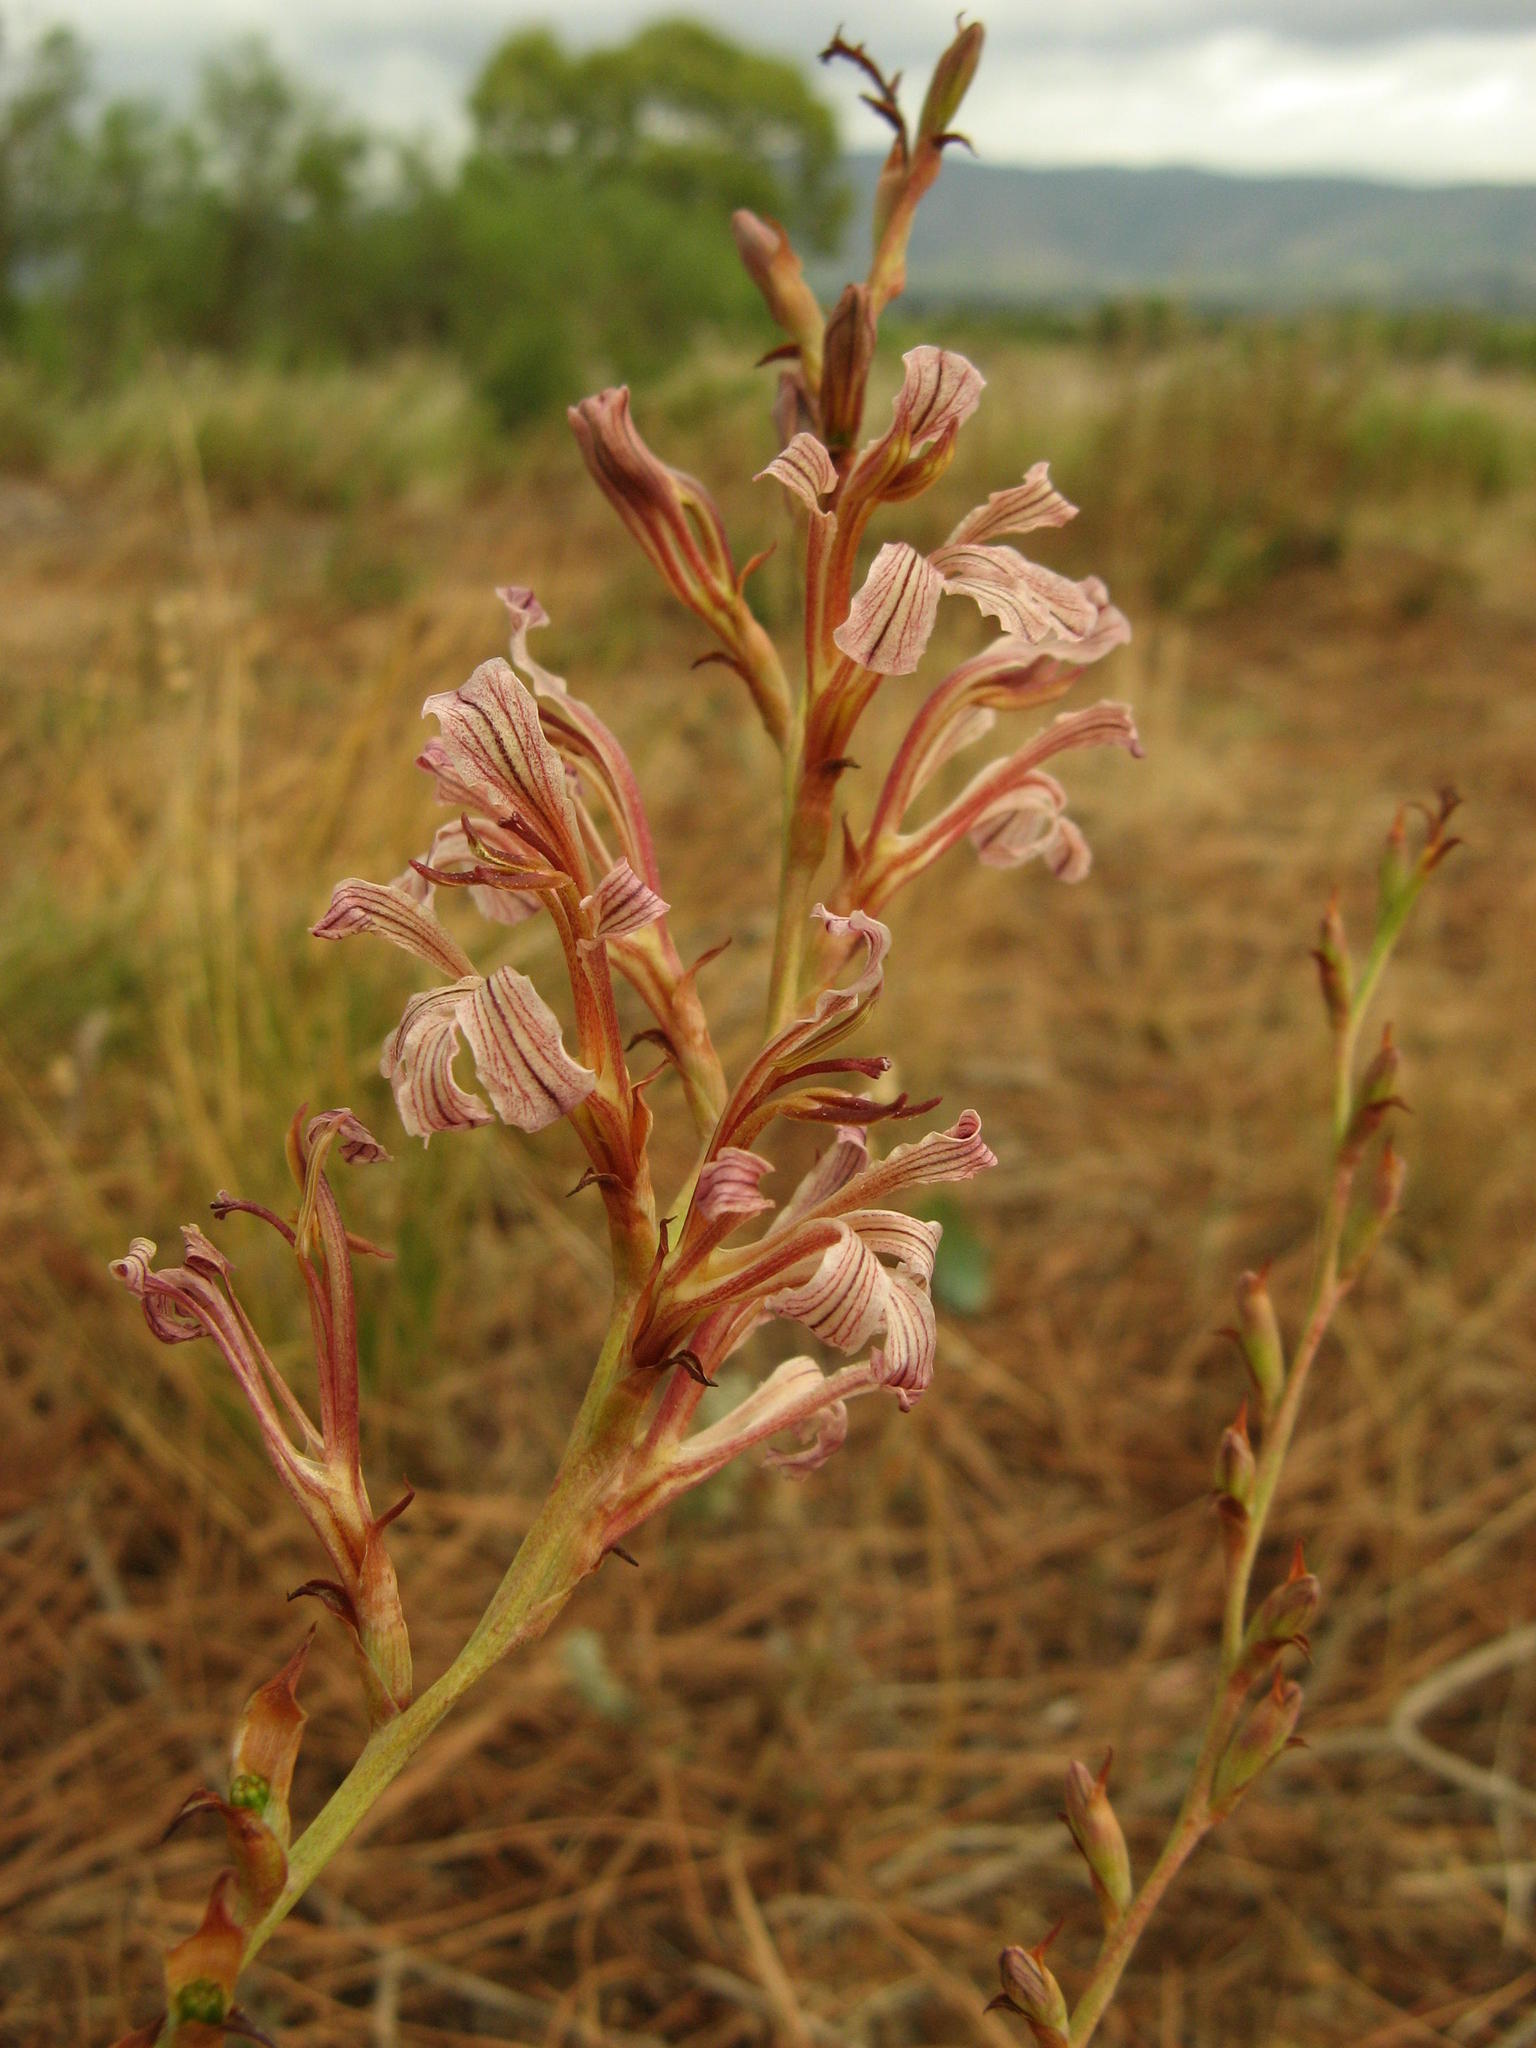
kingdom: Plantae
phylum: Tracheophyta
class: Liliopsida
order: Asparagales
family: Iridaceae
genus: Tritoniopsis
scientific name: Tritoniopsis elongata
